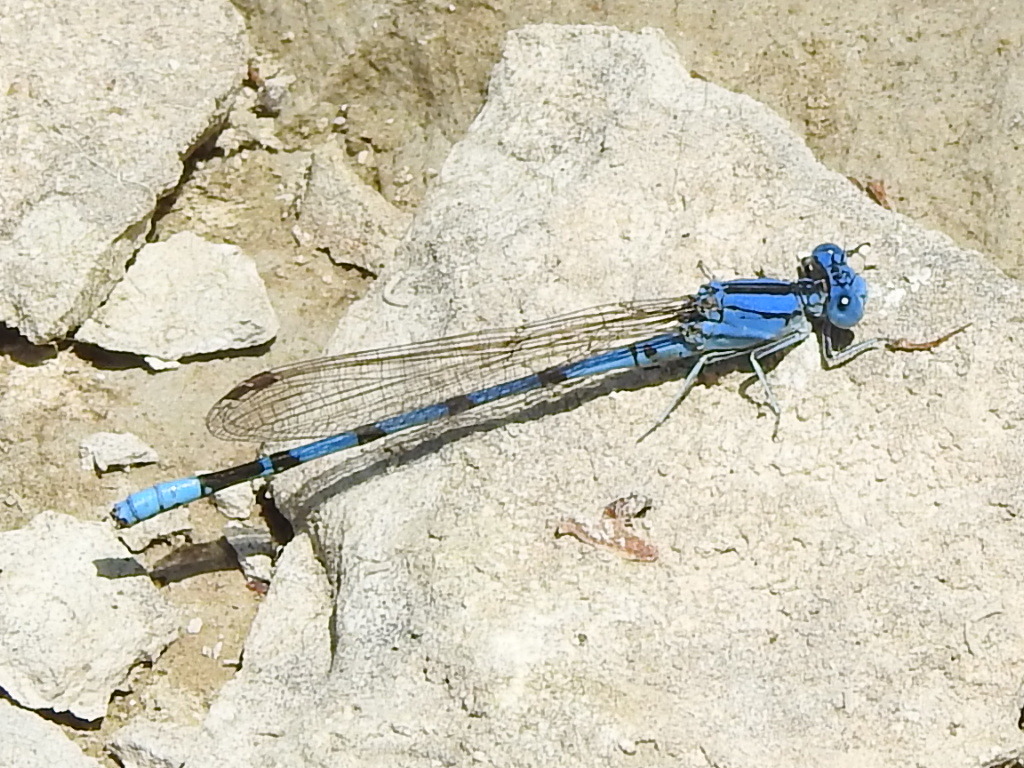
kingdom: Animalia
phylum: Arthropoda
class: Insecta
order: Odonata
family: Coenagrionidae
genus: Argia
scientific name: Argia nahuana
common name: Aztec dancer
